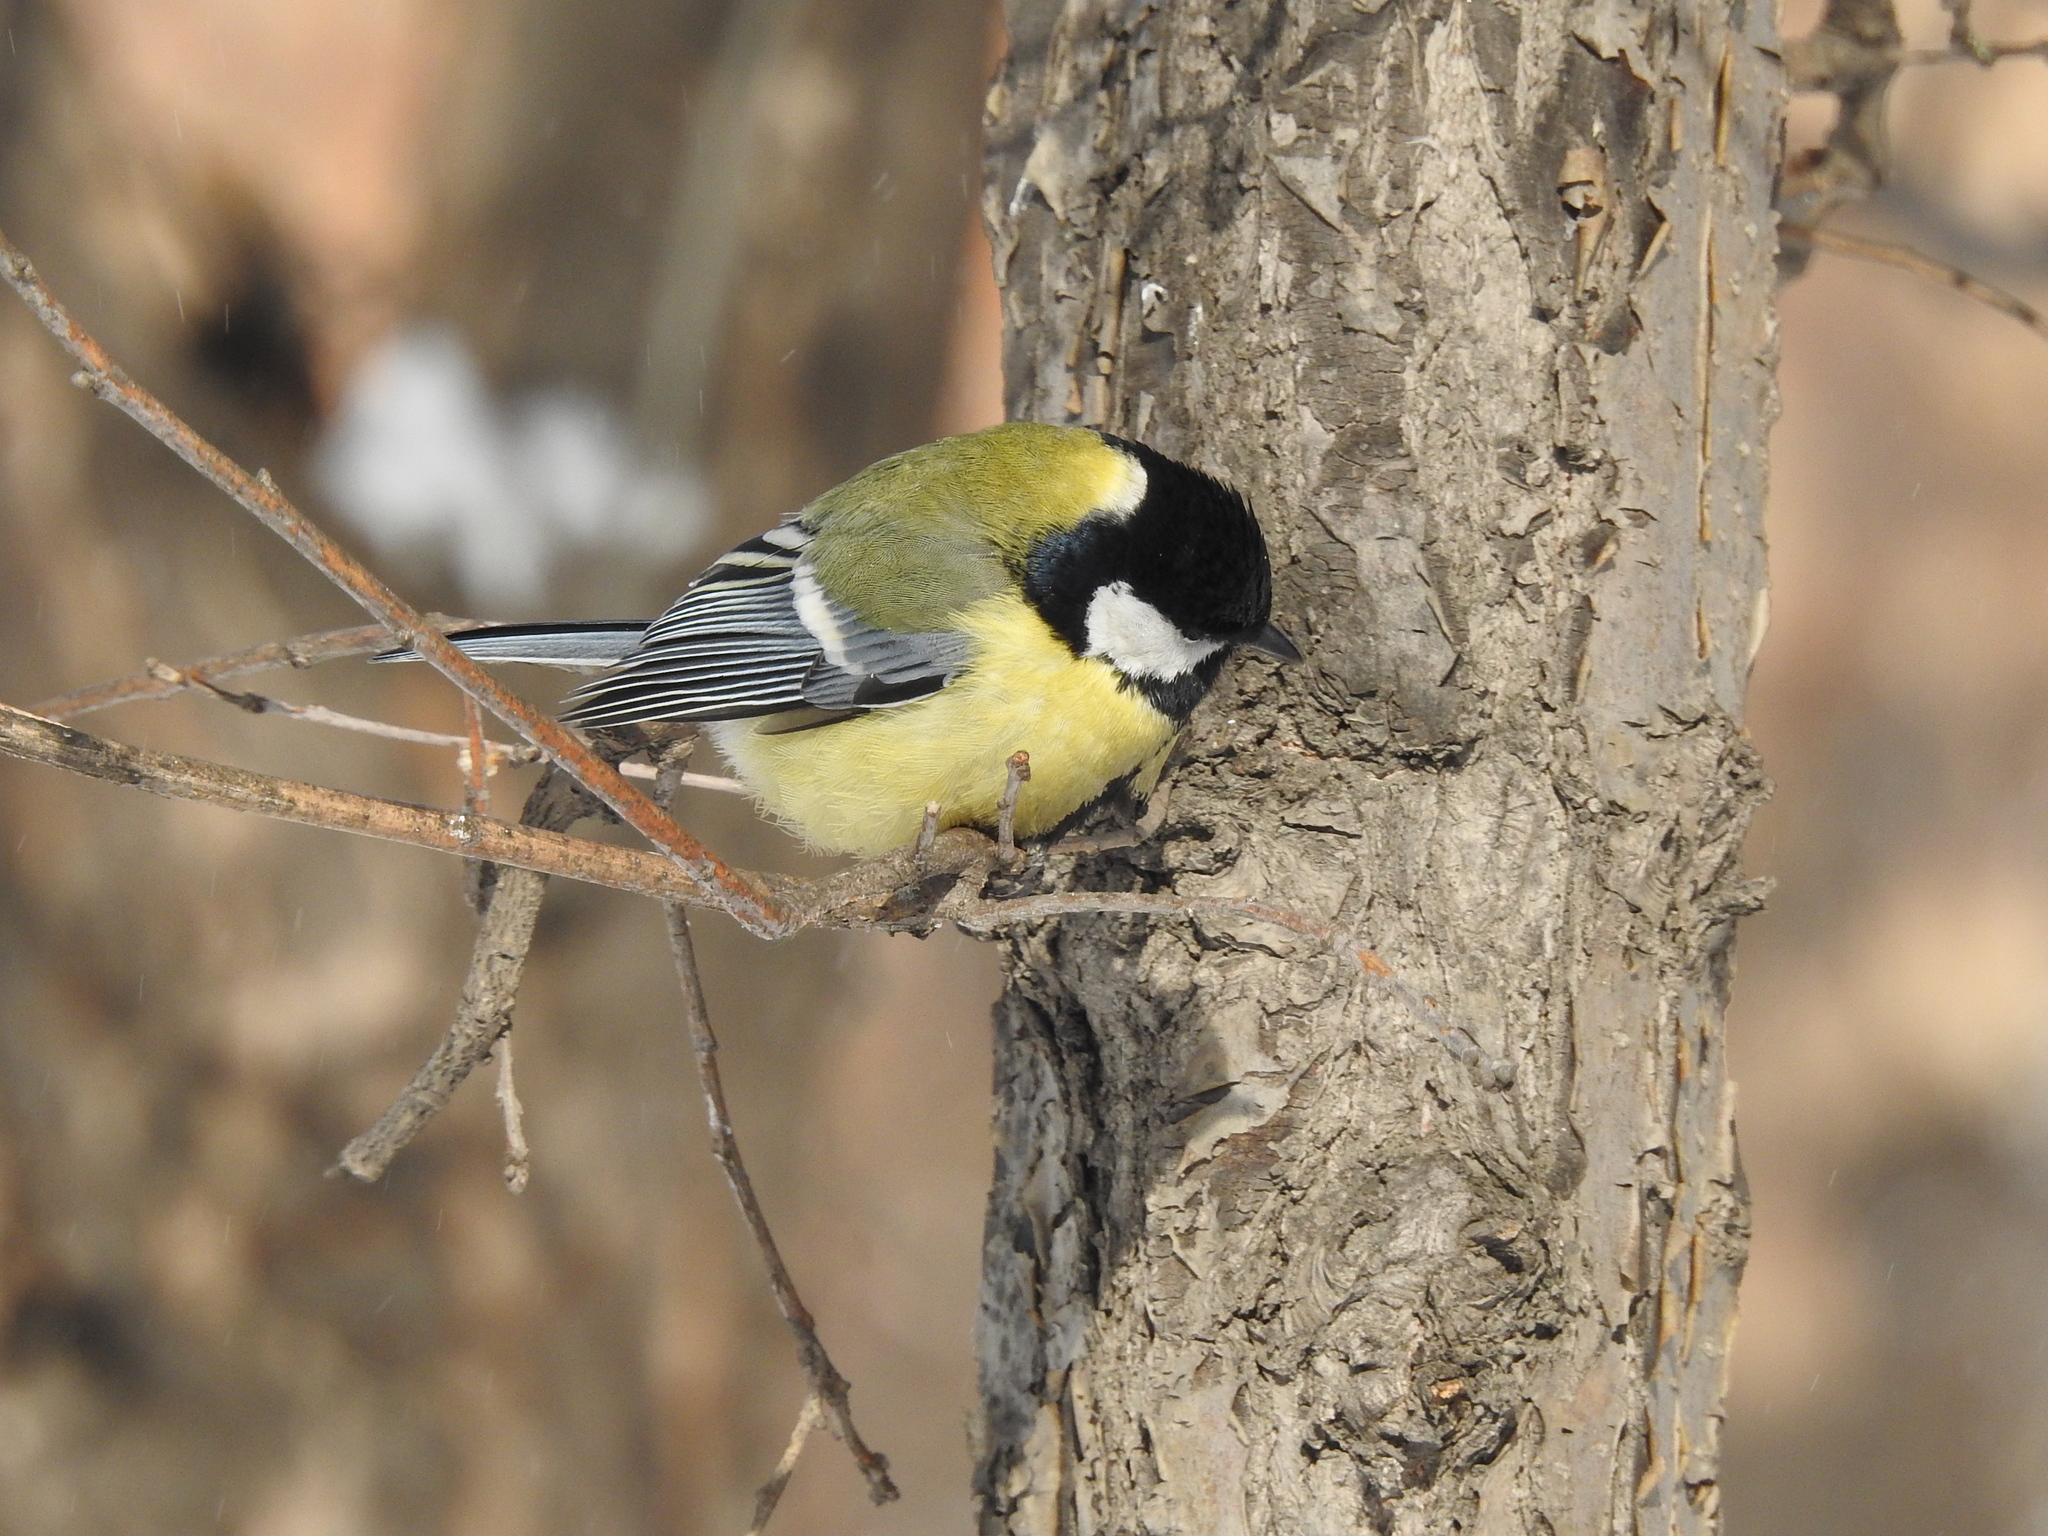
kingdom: Animalia
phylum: Chordata
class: Aves
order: Passeriformes
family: Paridae
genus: Parus
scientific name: Parus major
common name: Great tit
